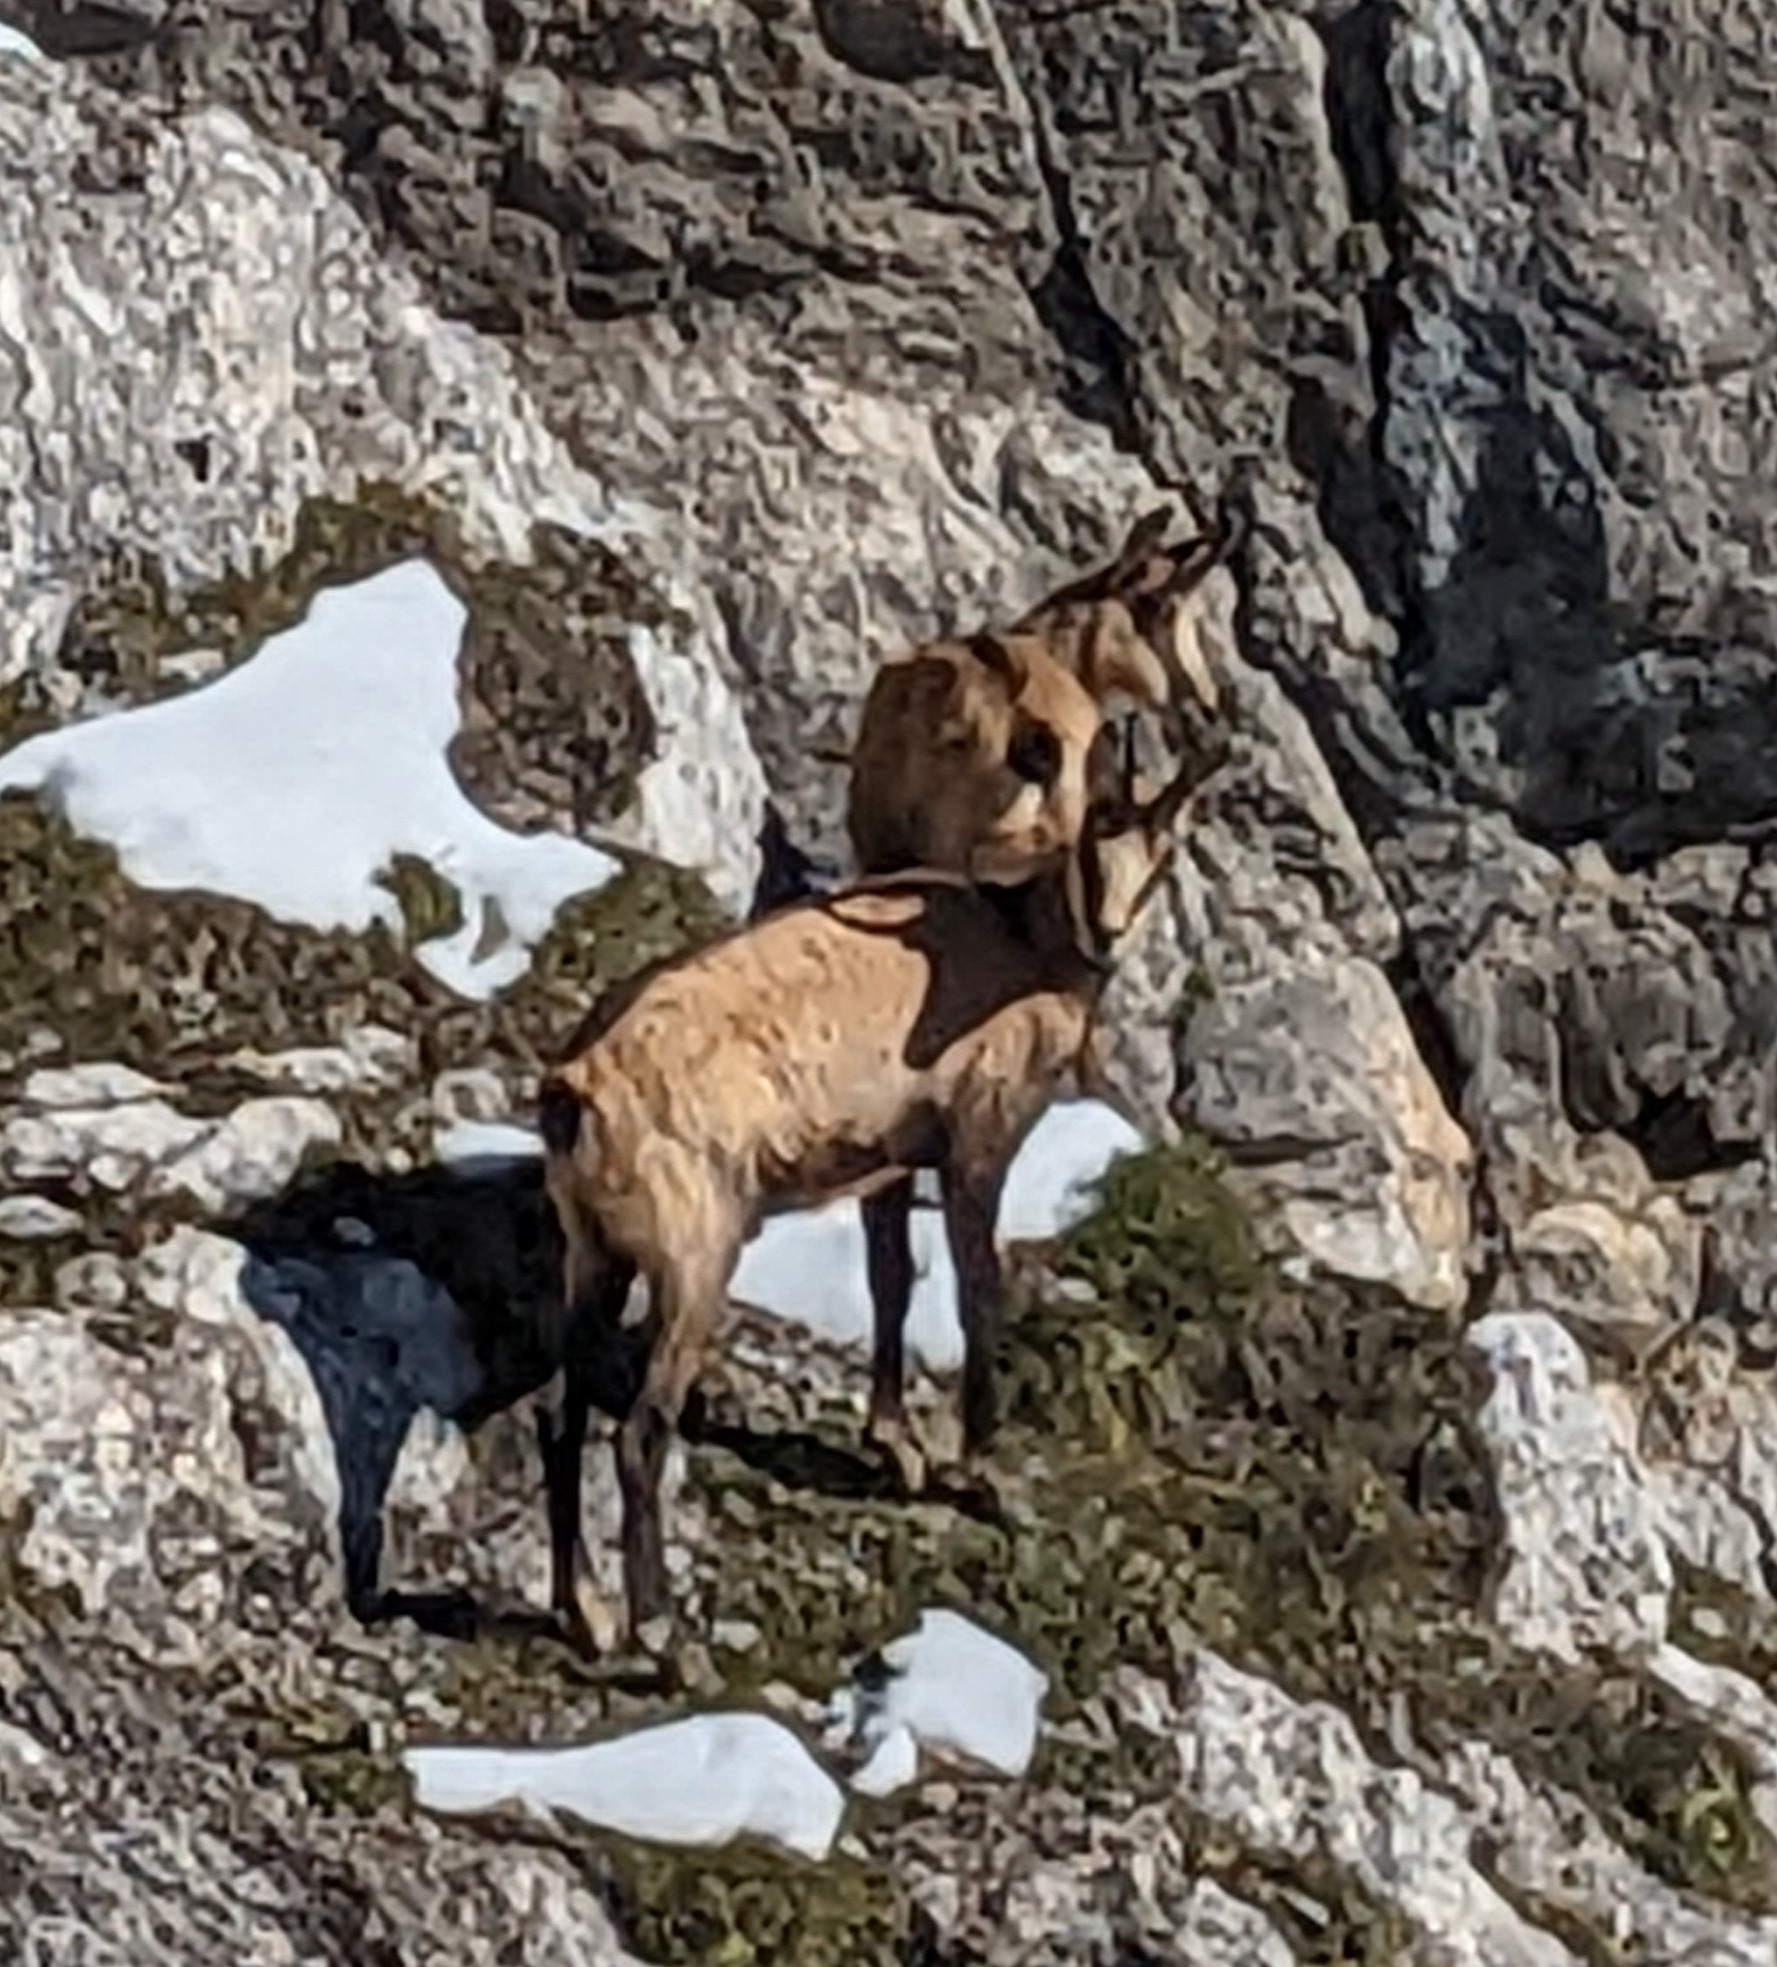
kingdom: Animalia
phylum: Chordata
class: Mammalia
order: Artiodactyla
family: Bovidae
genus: Rupicapra
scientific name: Rupicapra rupicapra
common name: Chamois
